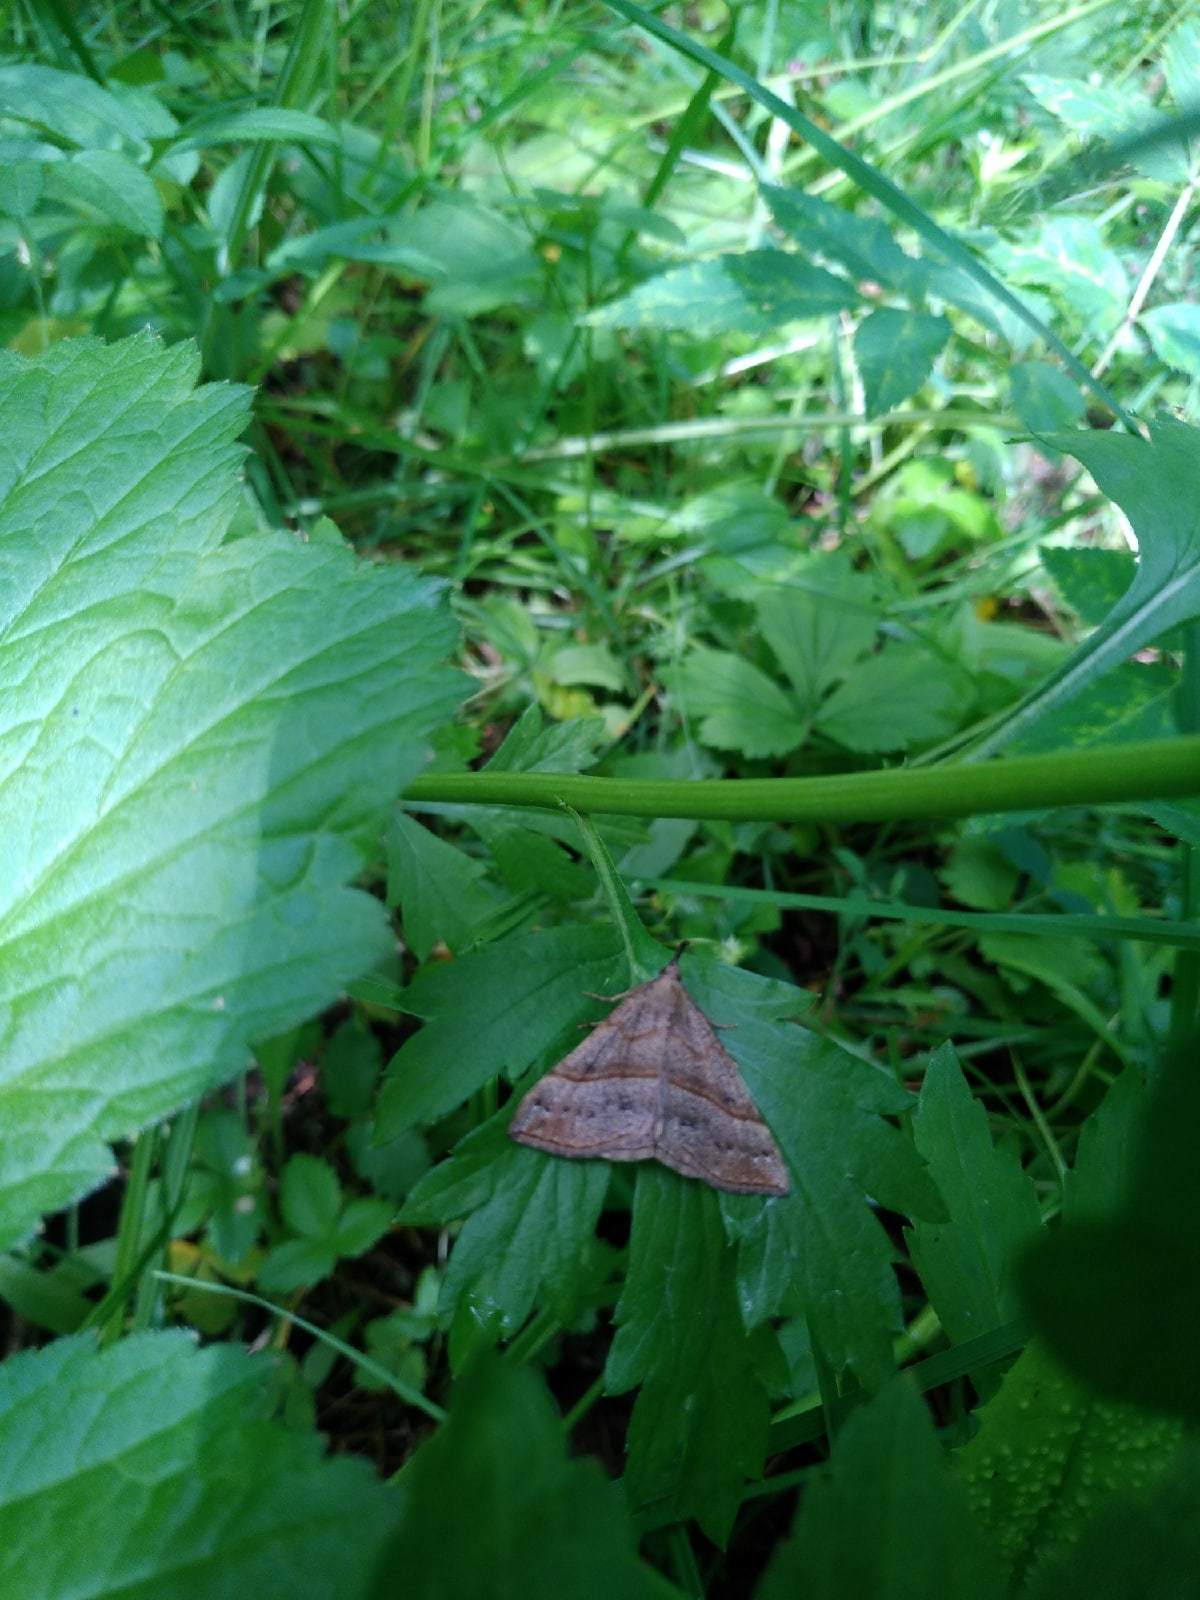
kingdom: Animalia
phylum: Arthropoda
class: Insecta
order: Lepidoptera
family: Erebidae
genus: Hypena
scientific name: Hypena proboscidalis
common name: Snout
